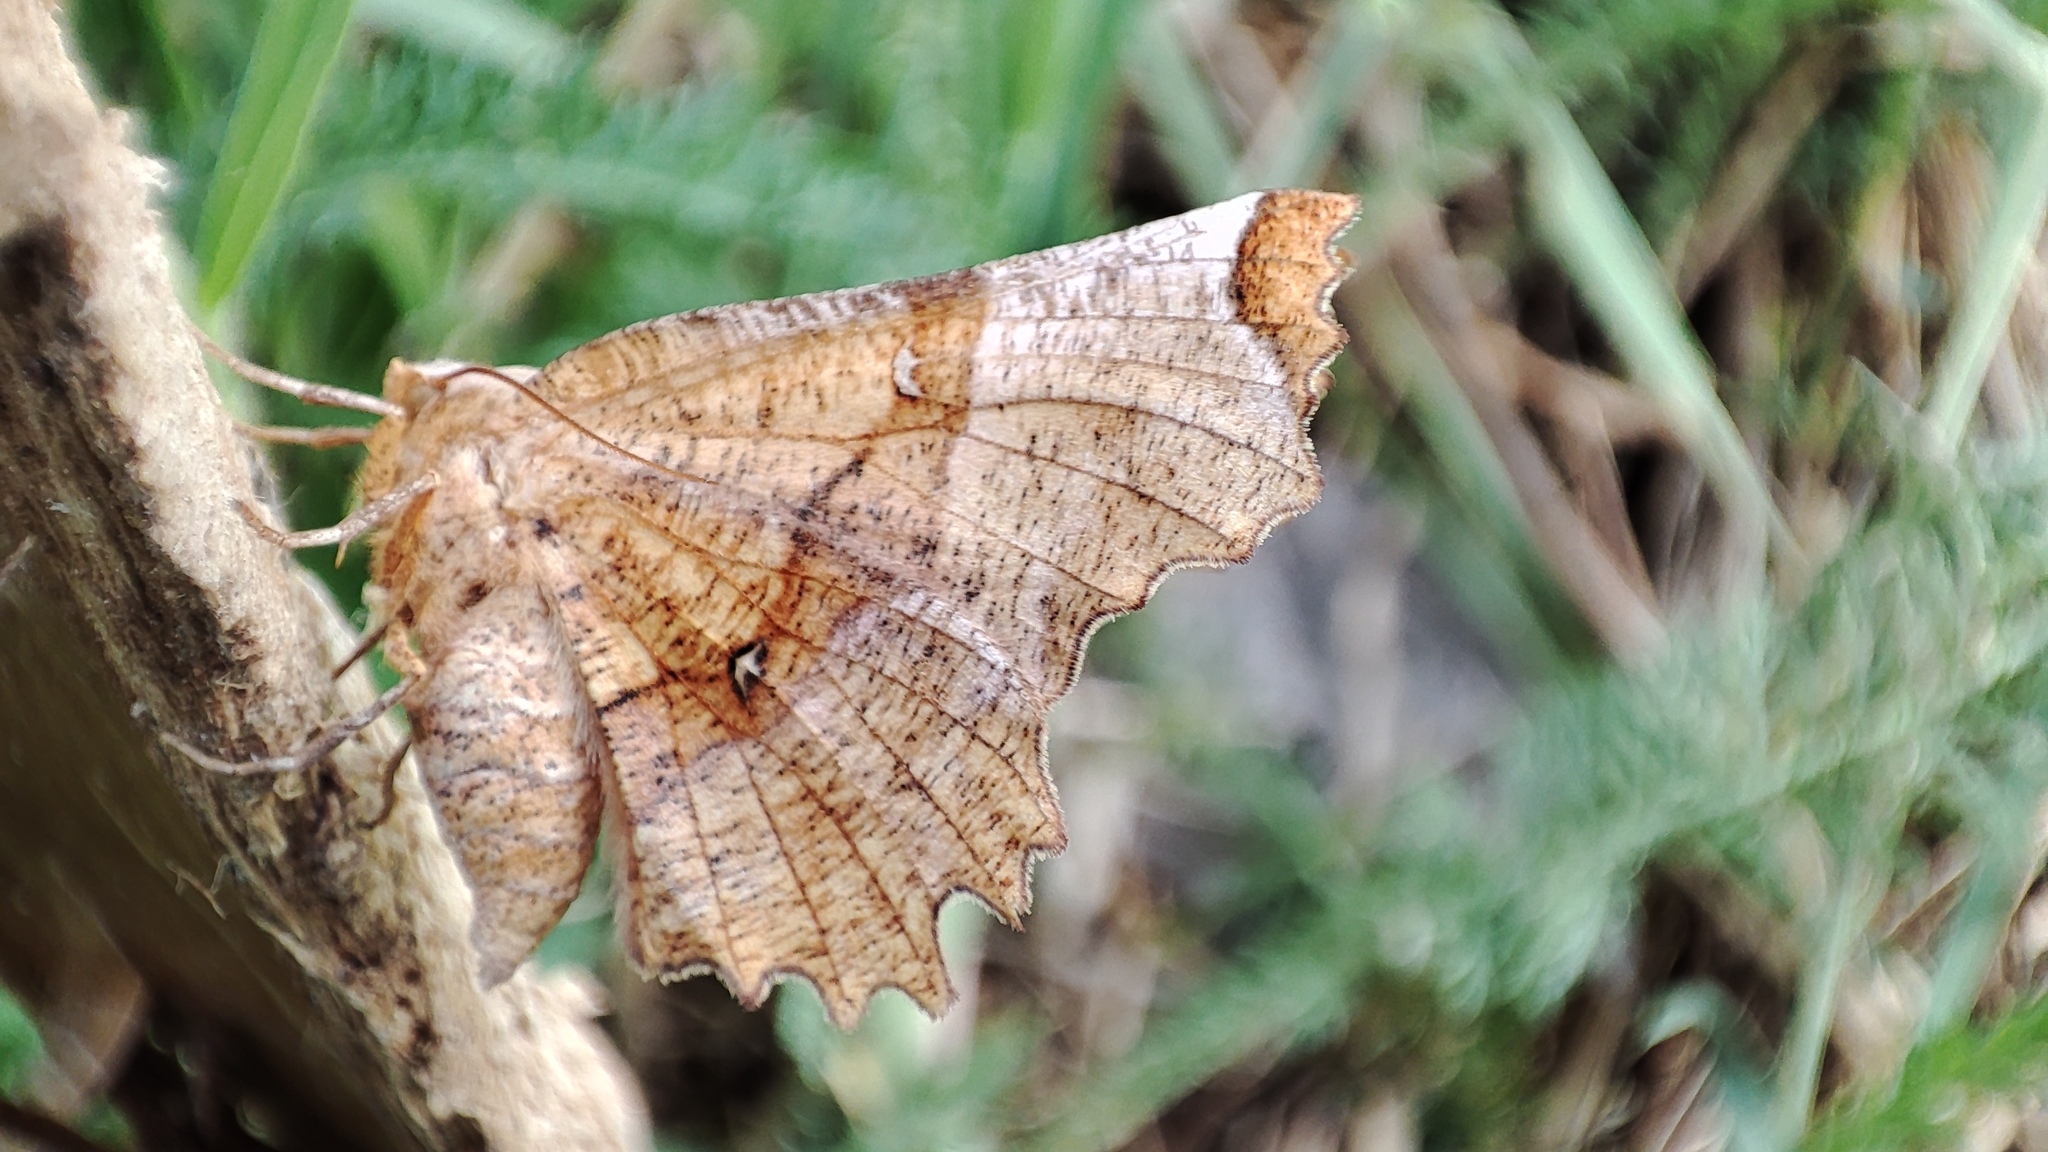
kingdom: Animalia
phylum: Arthropoda
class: Insecta
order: Lepidoptera
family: Geometridae
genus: Selenia
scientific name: Selenia lunularia
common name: Lunar thorn
